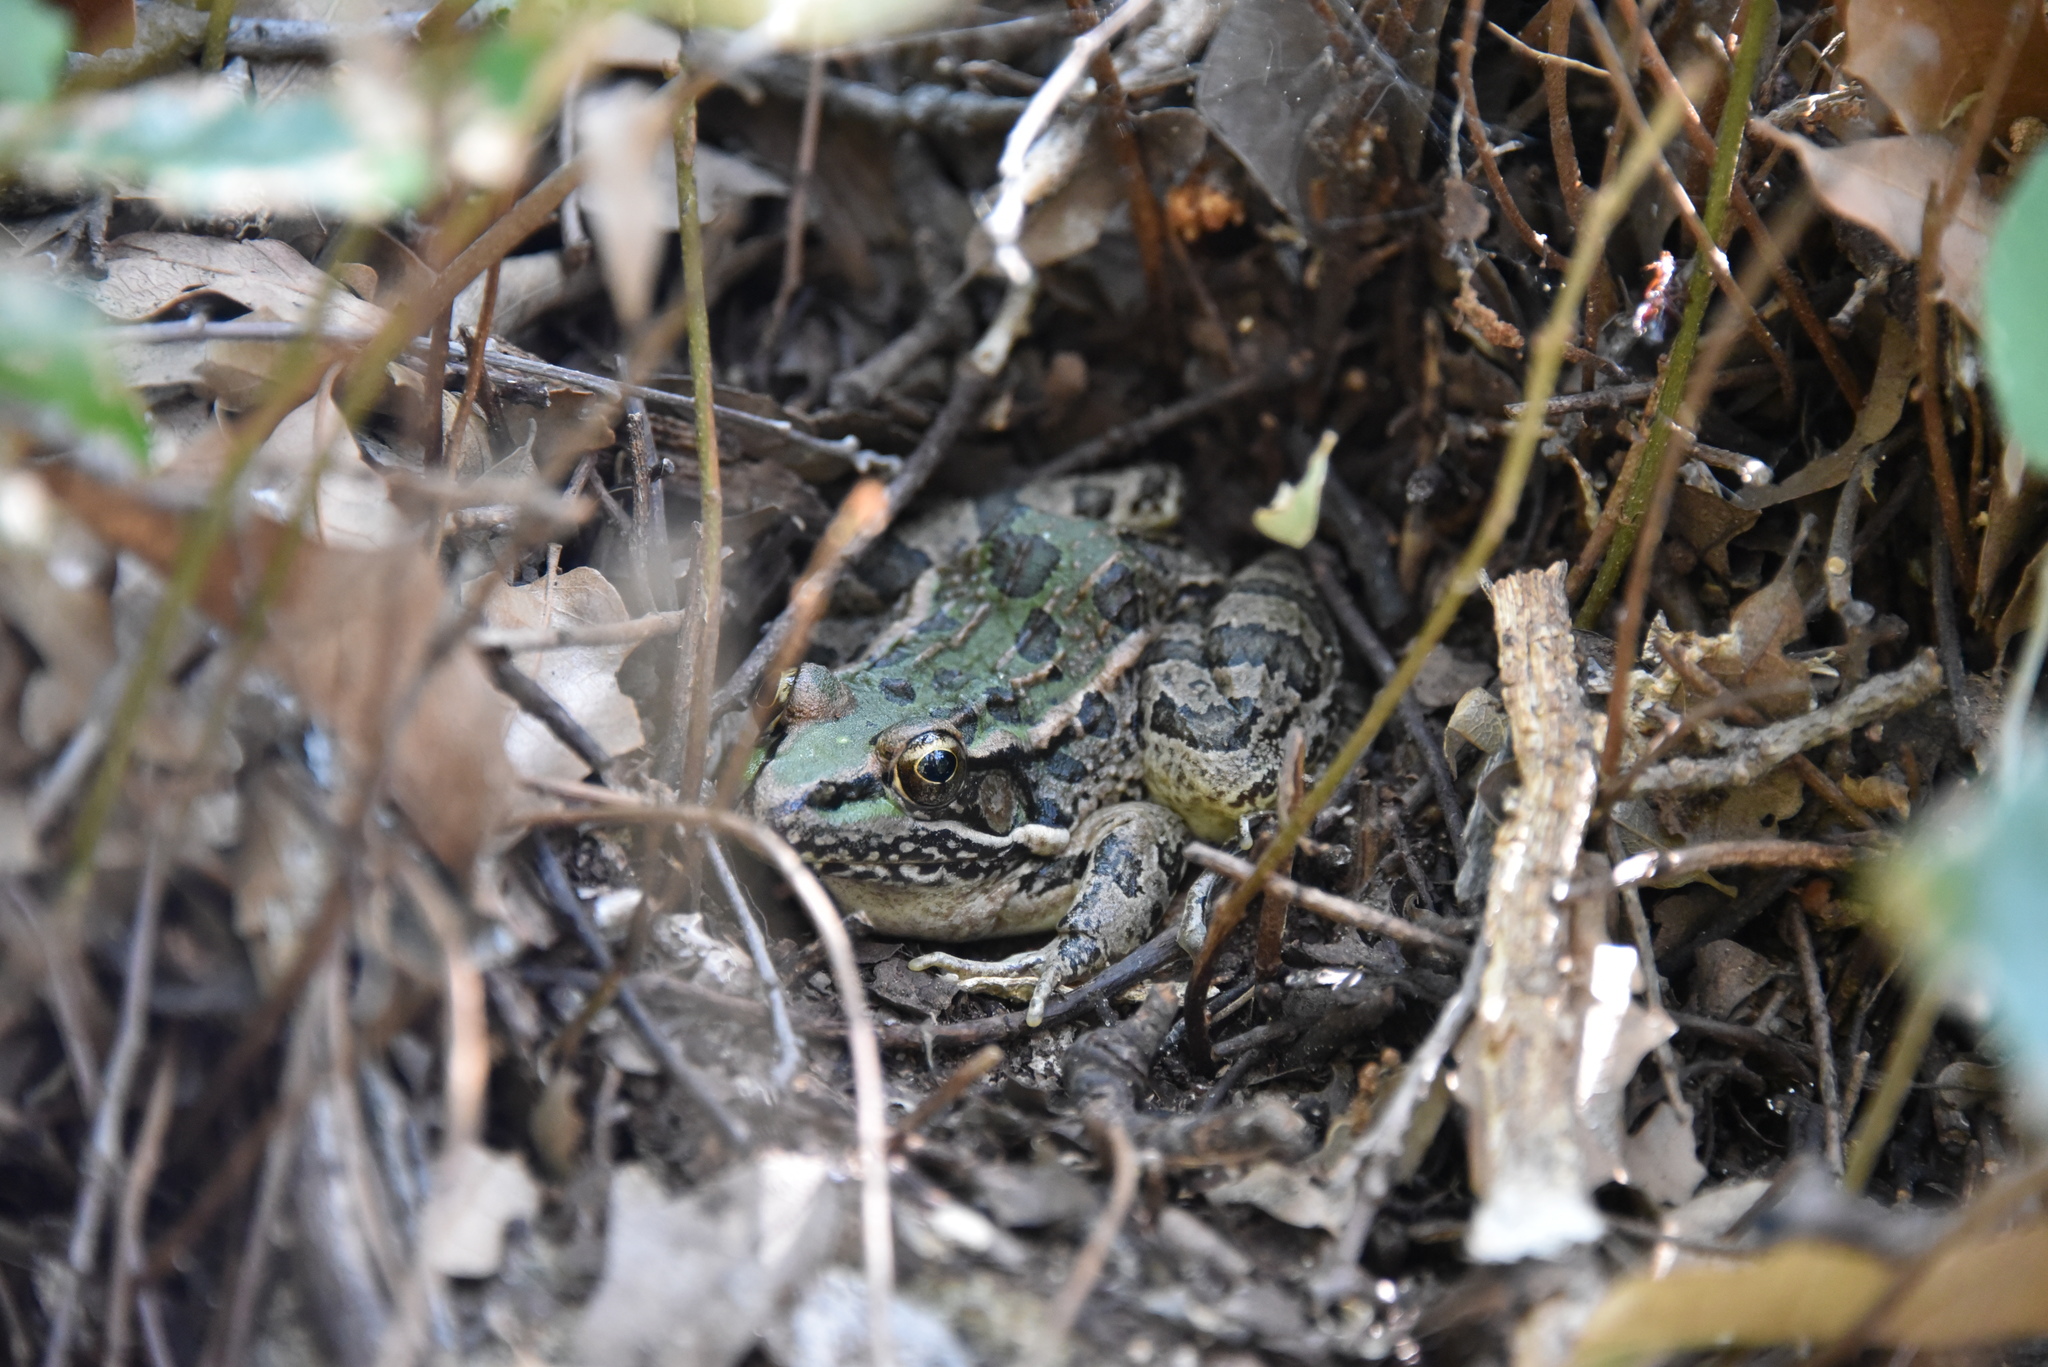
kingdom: Animalia
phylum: Chordata
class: Amphibia
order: Anura
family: Ranidae
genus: Lithobates
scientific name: Lithobates berlandieri
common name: Rio grande leopard frog
